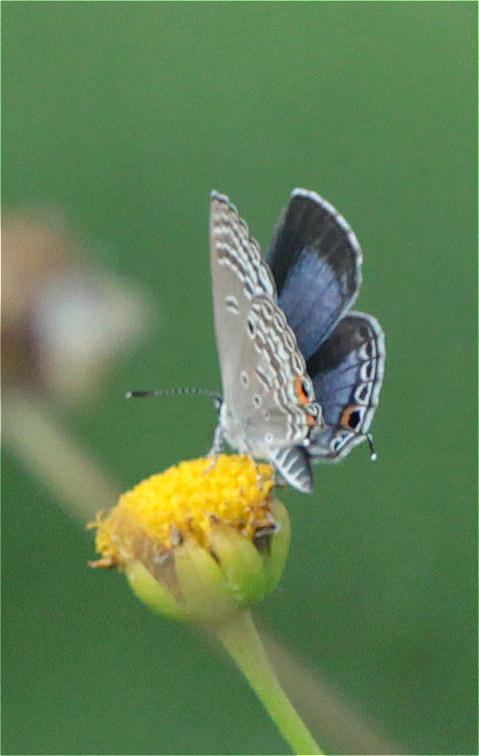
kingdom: Animalia
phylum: Arthropoda
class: Insecta
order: Lepidoptera
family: Lycaenidae
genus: Luthrodes
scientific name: Luthrodes pandava
